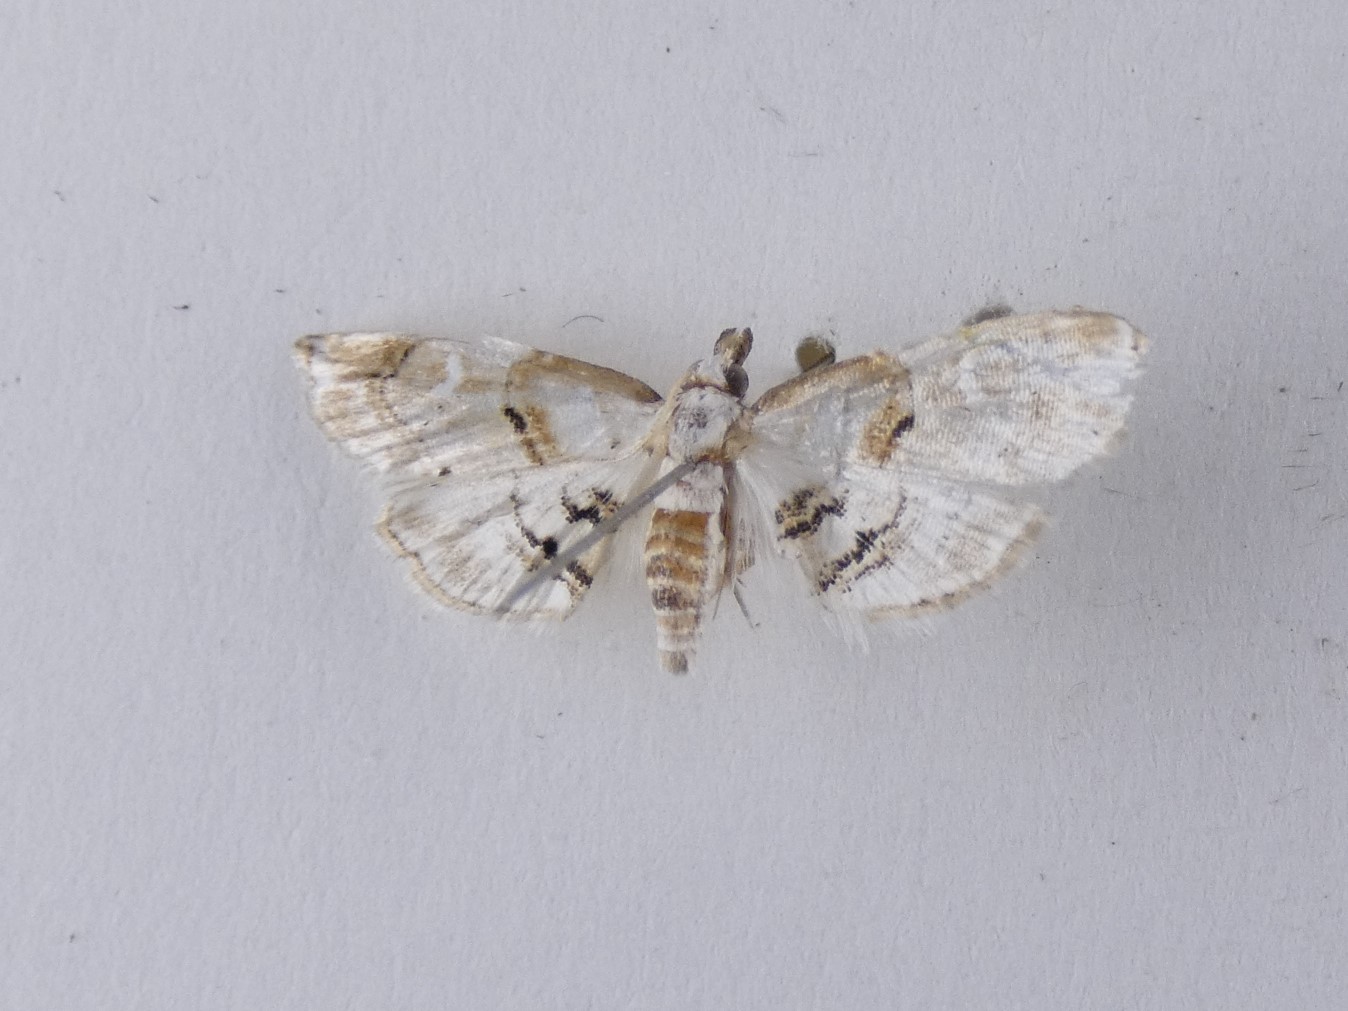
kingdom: Animalia
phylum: Arthropoda
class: Insecta
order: Lepidoptera
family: Crambidae
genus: Trichophysetis
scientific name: Trichophysetis
